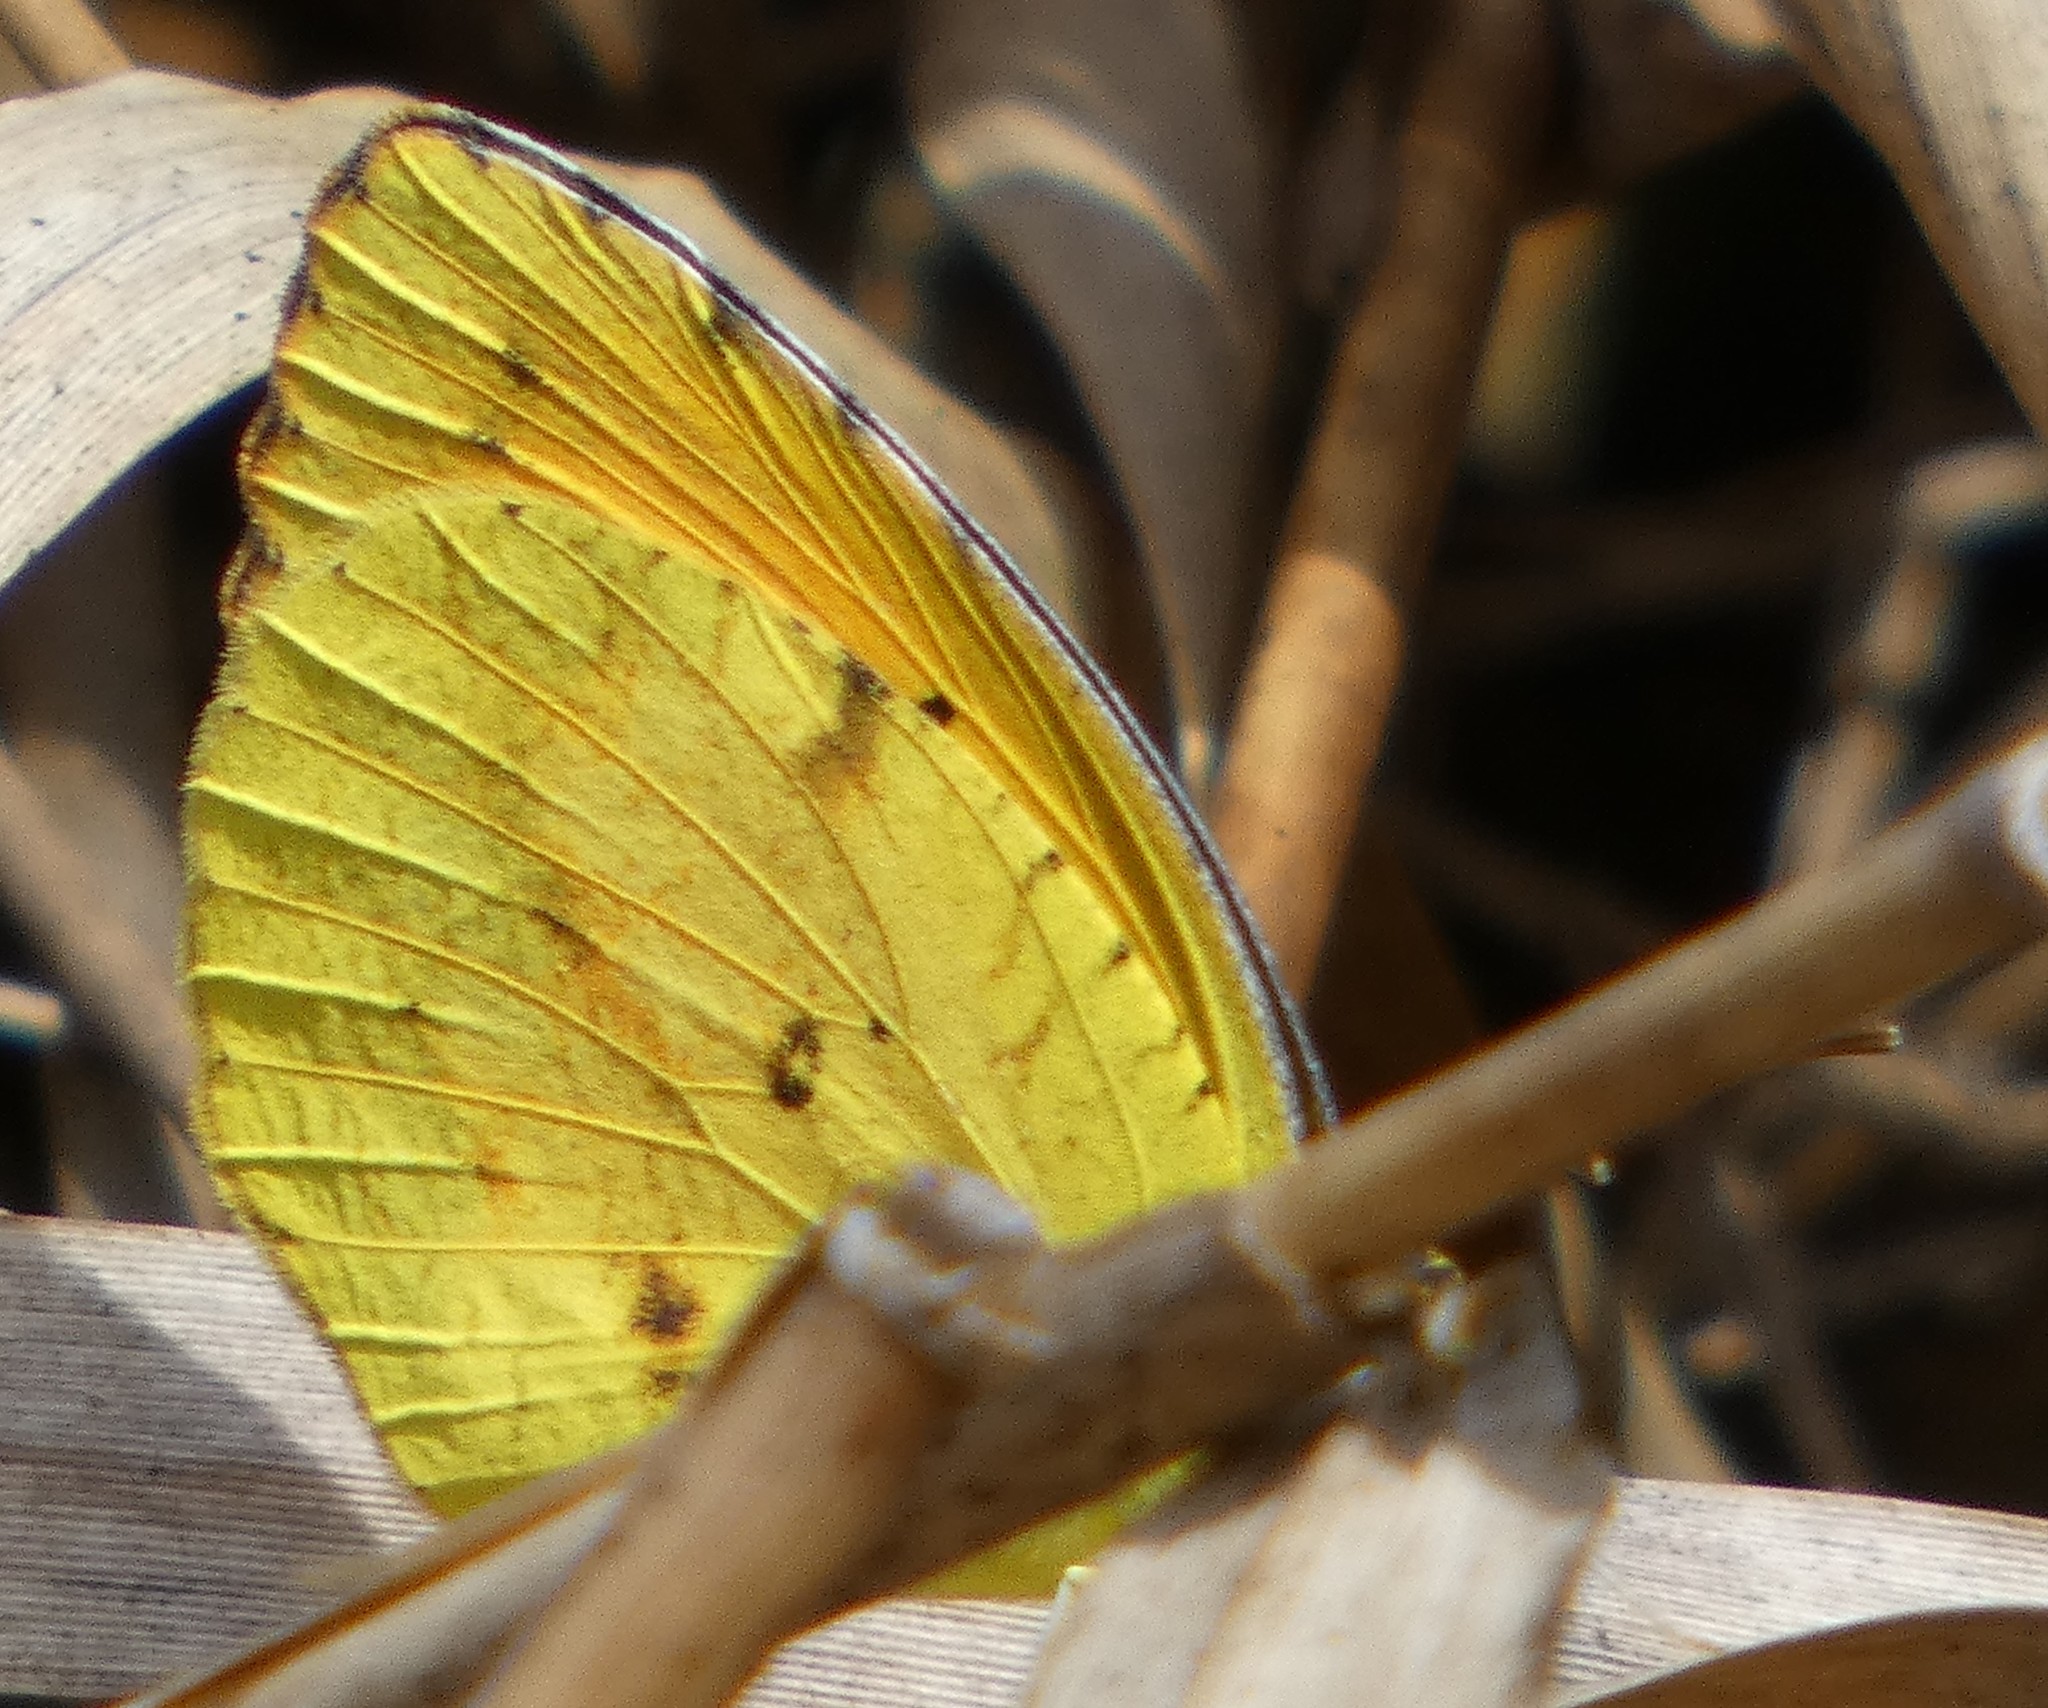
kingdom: Animalia
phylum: Arthropoda
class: Insecta
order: Lepidoptera
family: Pieridae
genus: Abaeis
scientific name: Abaeis nicippe
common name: Sleepy orange
